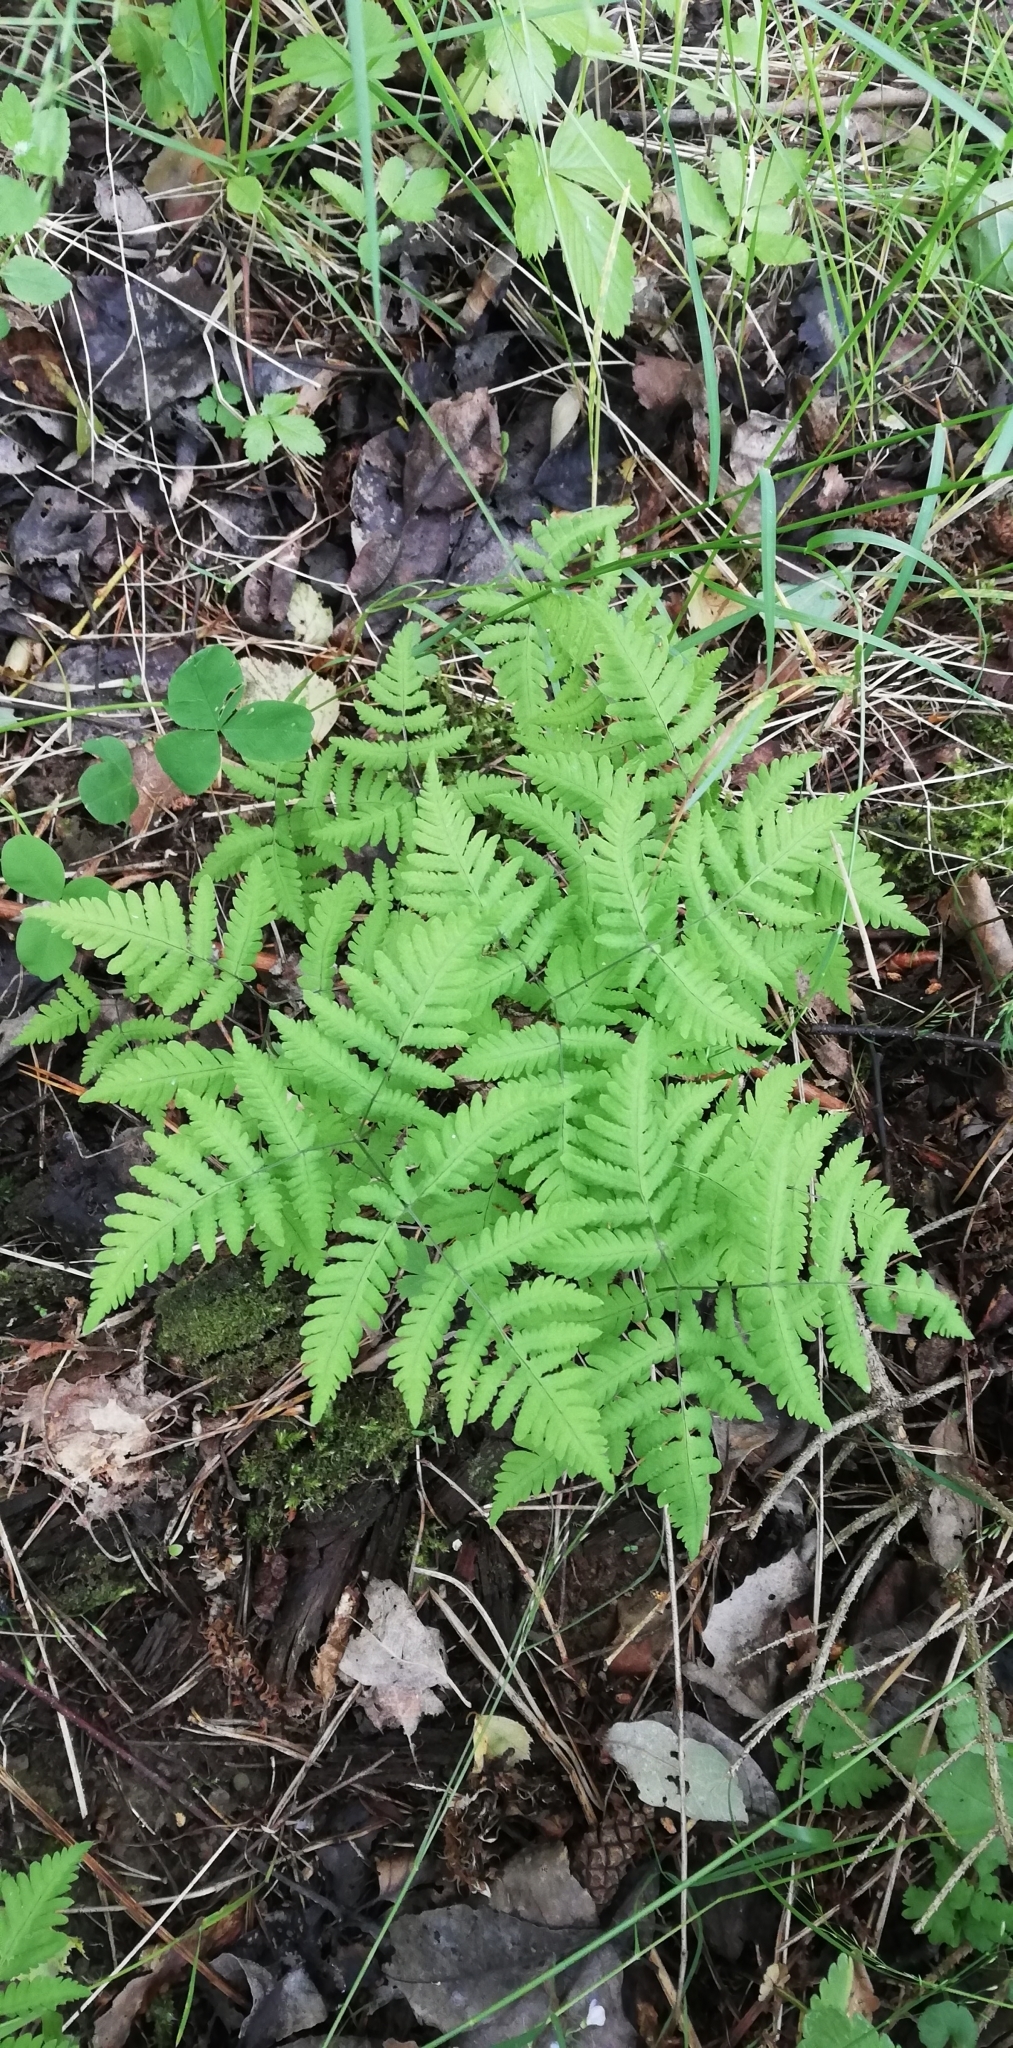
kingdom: Plantae
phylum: Tracheophyta
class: Polypodiopsida
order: Polypodiales
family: Cystopteridaceae
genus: Gymnocarpium
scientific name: Gymnocarpium dryopteris
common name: Oak fern
